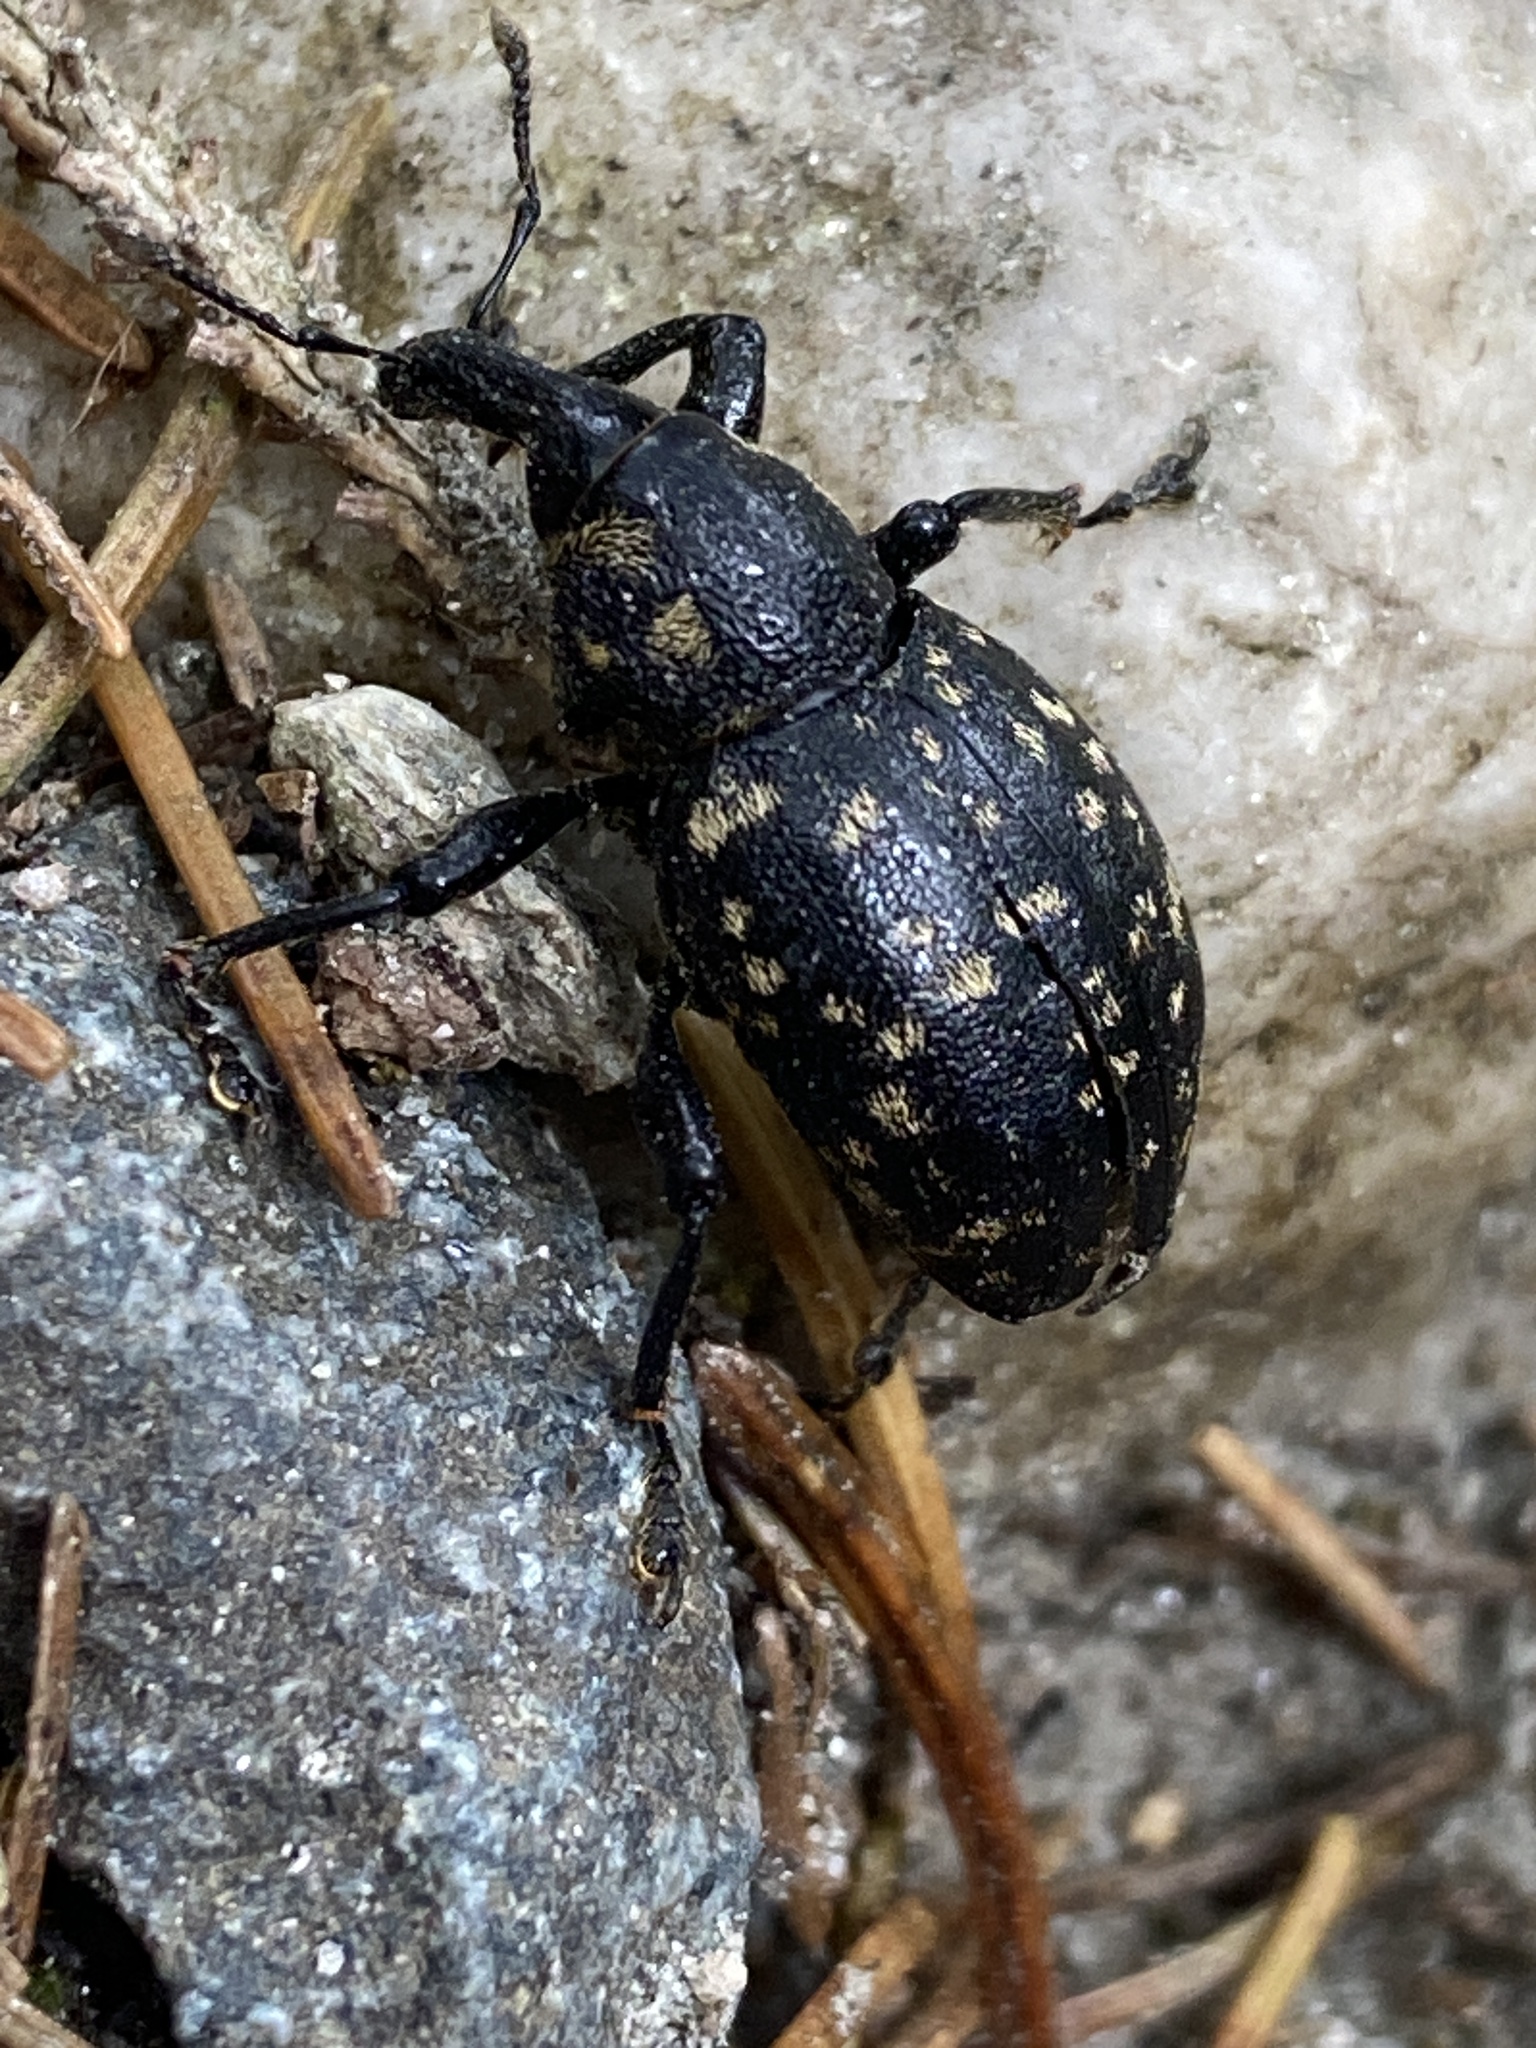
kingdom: Animalia
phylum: Arthropoda
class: Insecta
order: Coleoptera
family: Curculionidae
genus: Liparus
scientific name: Liparus germanus
